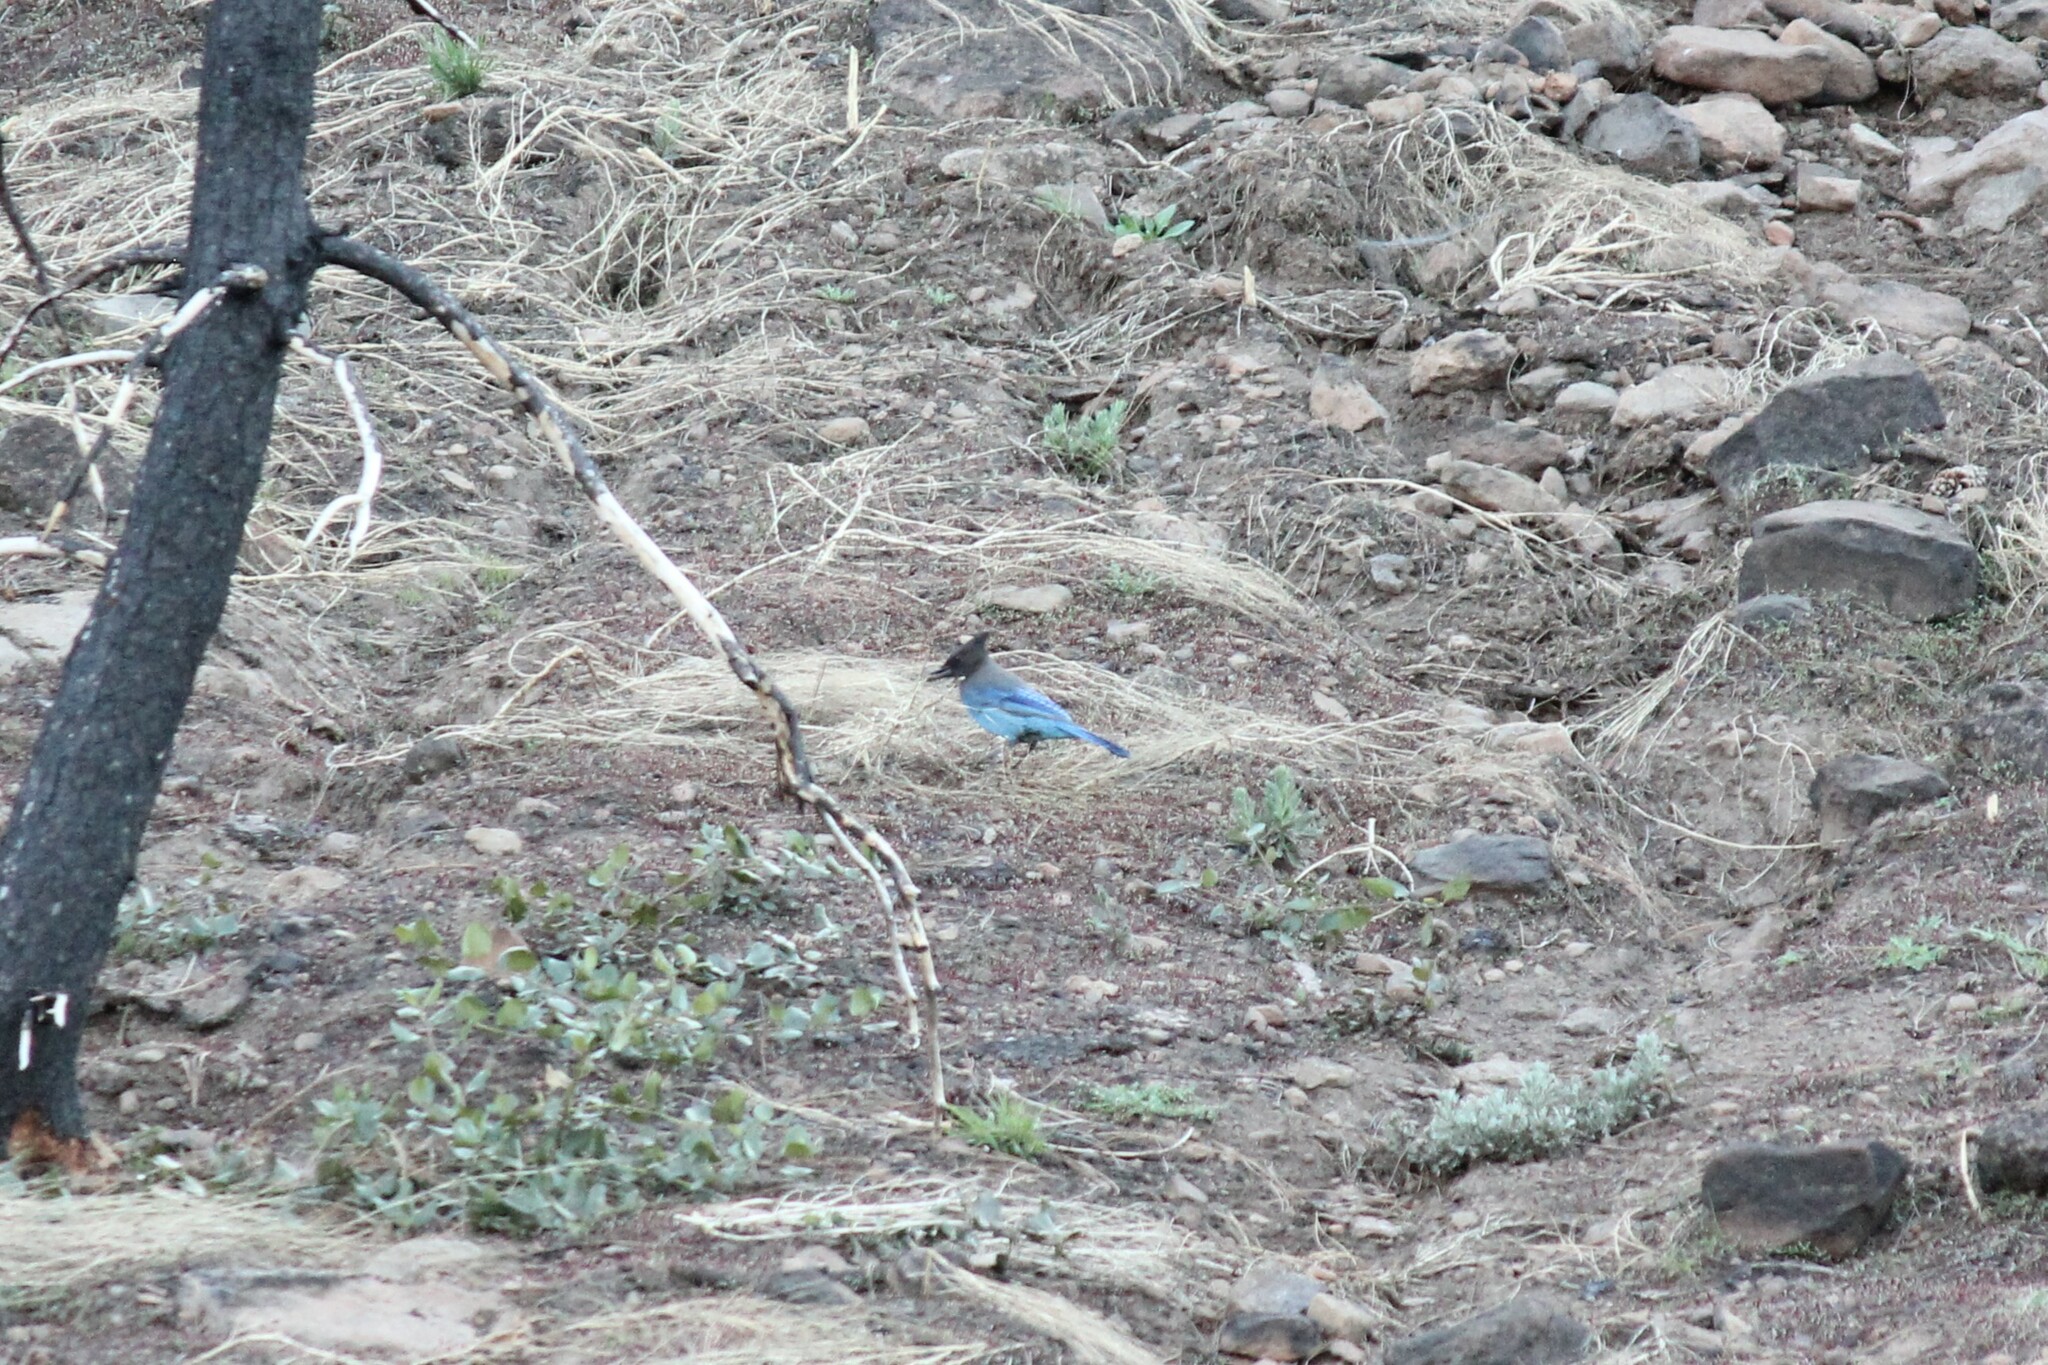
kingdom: Animalia
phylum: Chordata
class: Aves
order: Passeriformes
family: Corvidae
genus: Cyanocitta
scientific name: Cyanocitta stelleri
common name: Steller's jay
